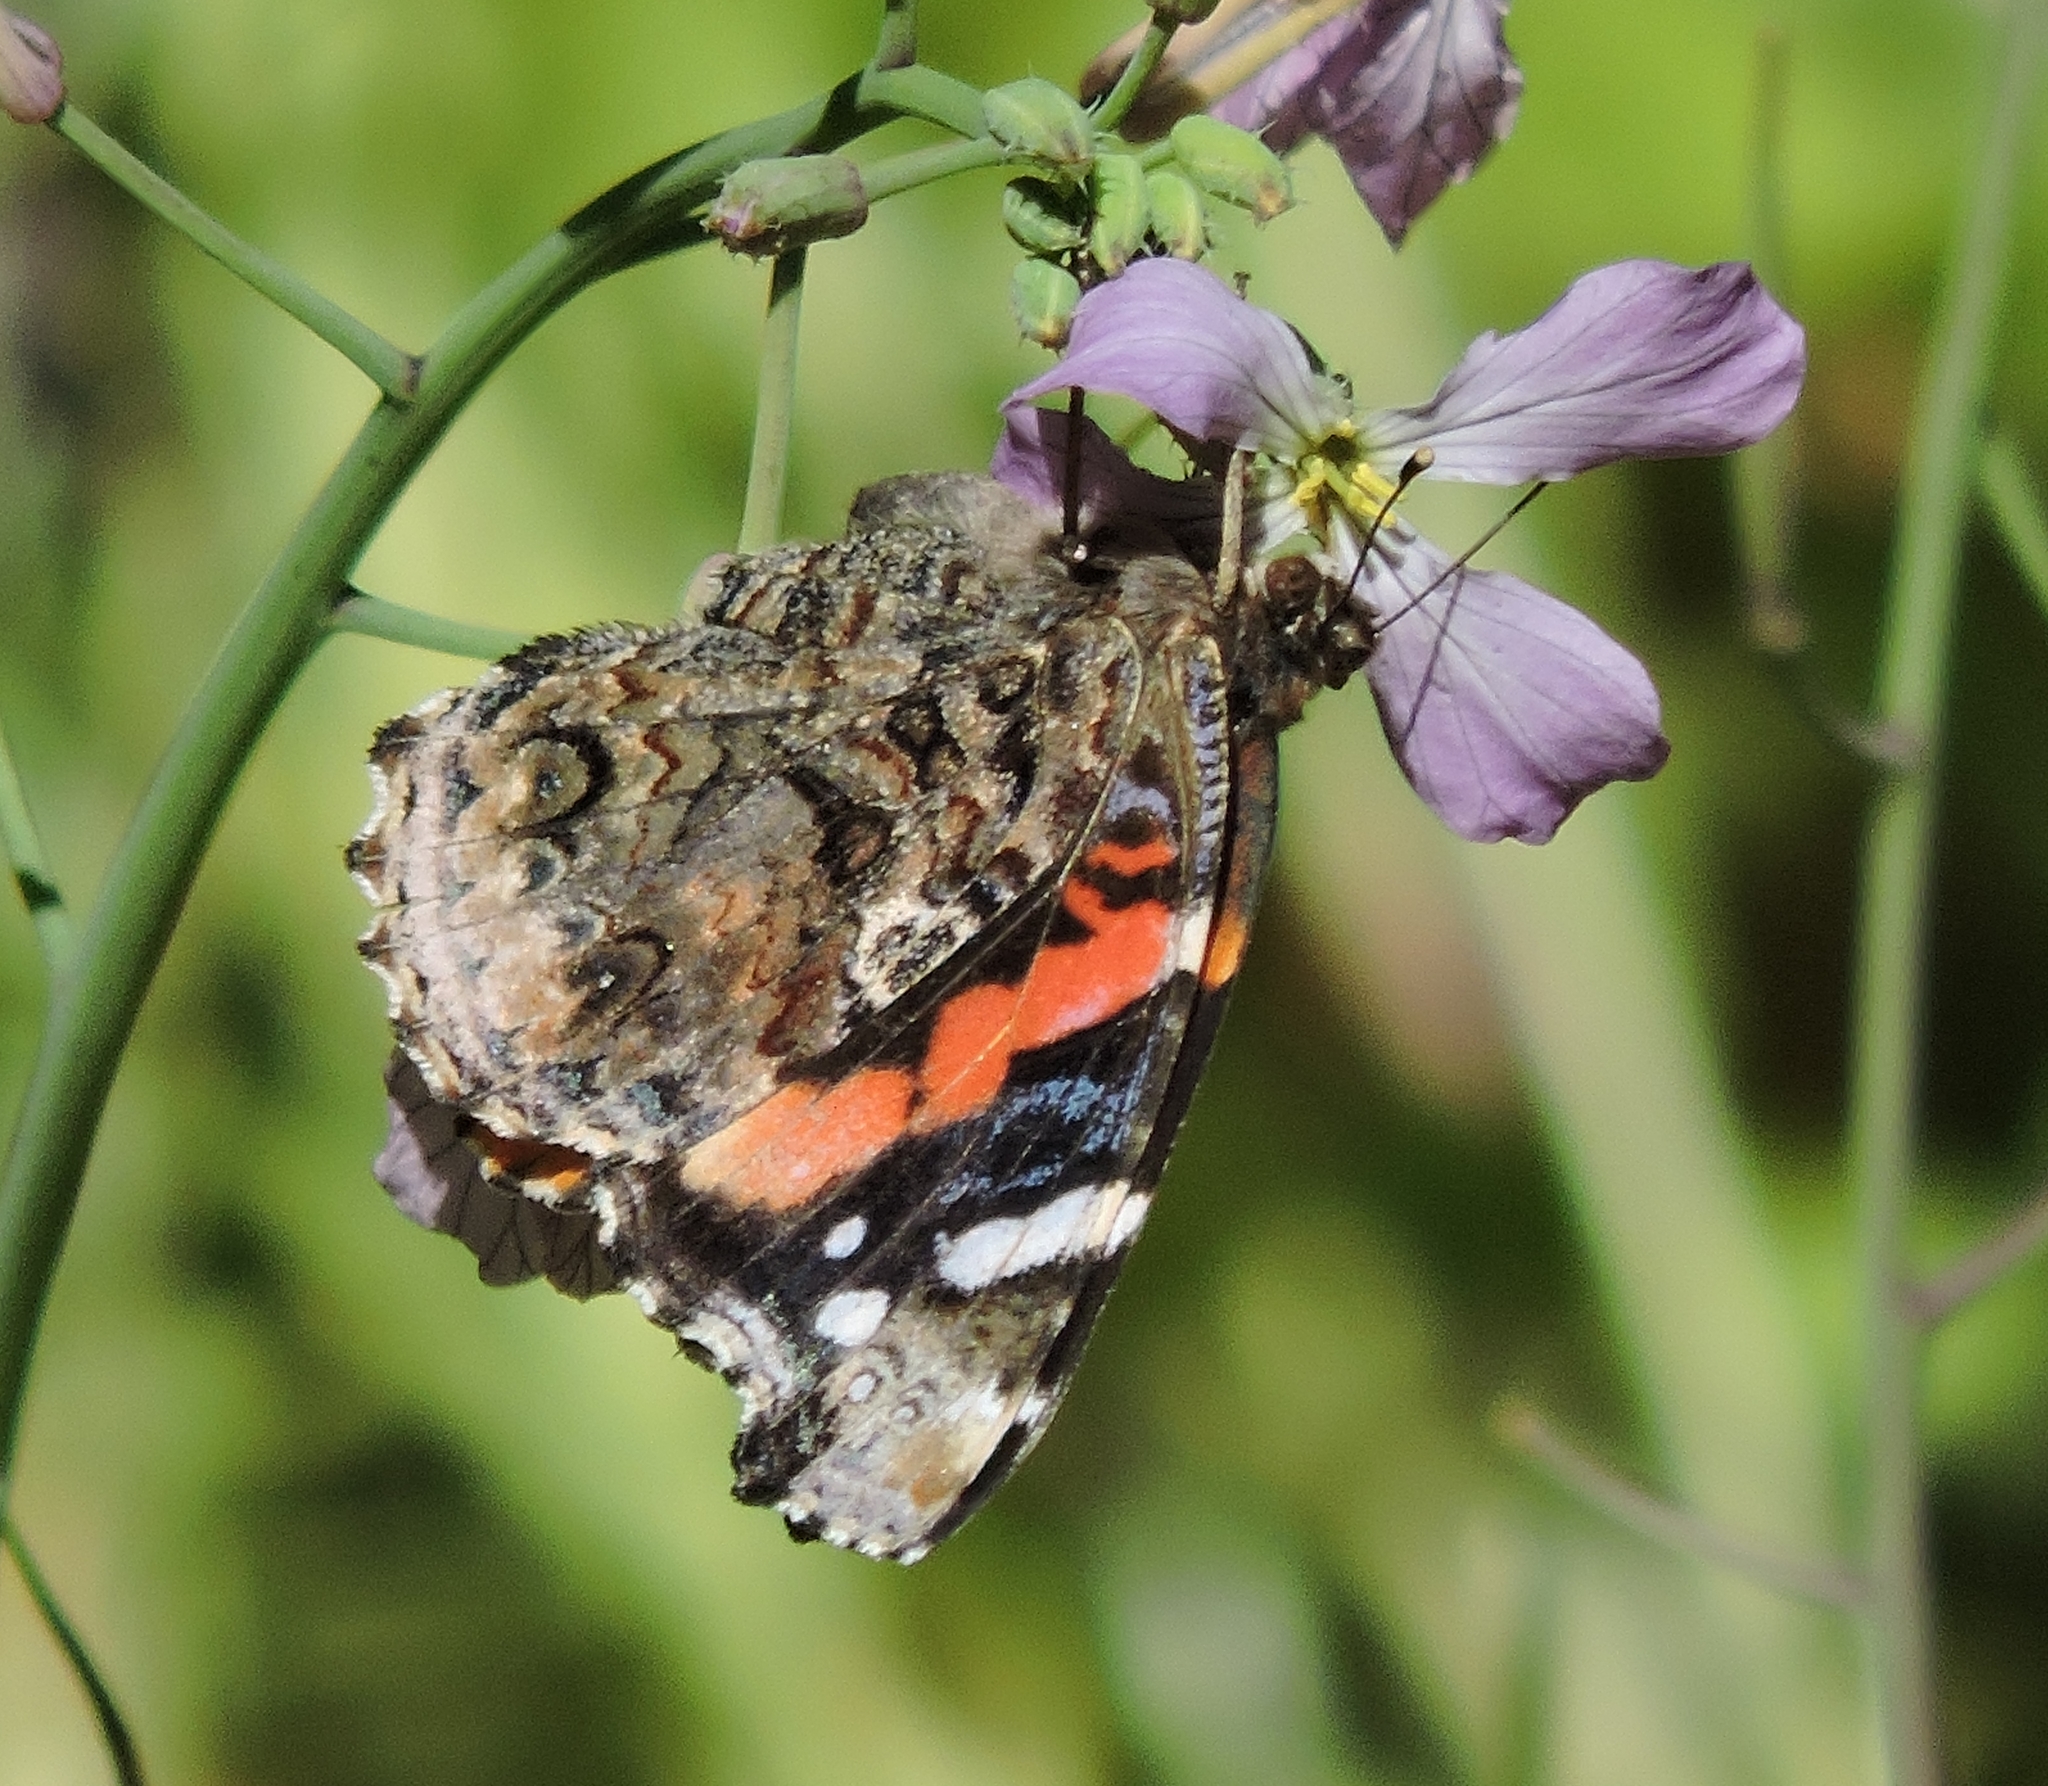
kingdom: Animalia
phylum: Arthropoda
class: Insecta
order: Lepidoptera
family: Nymphalidae
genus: Vanessa
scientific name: Vanessa atalanta
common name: Red admiral
